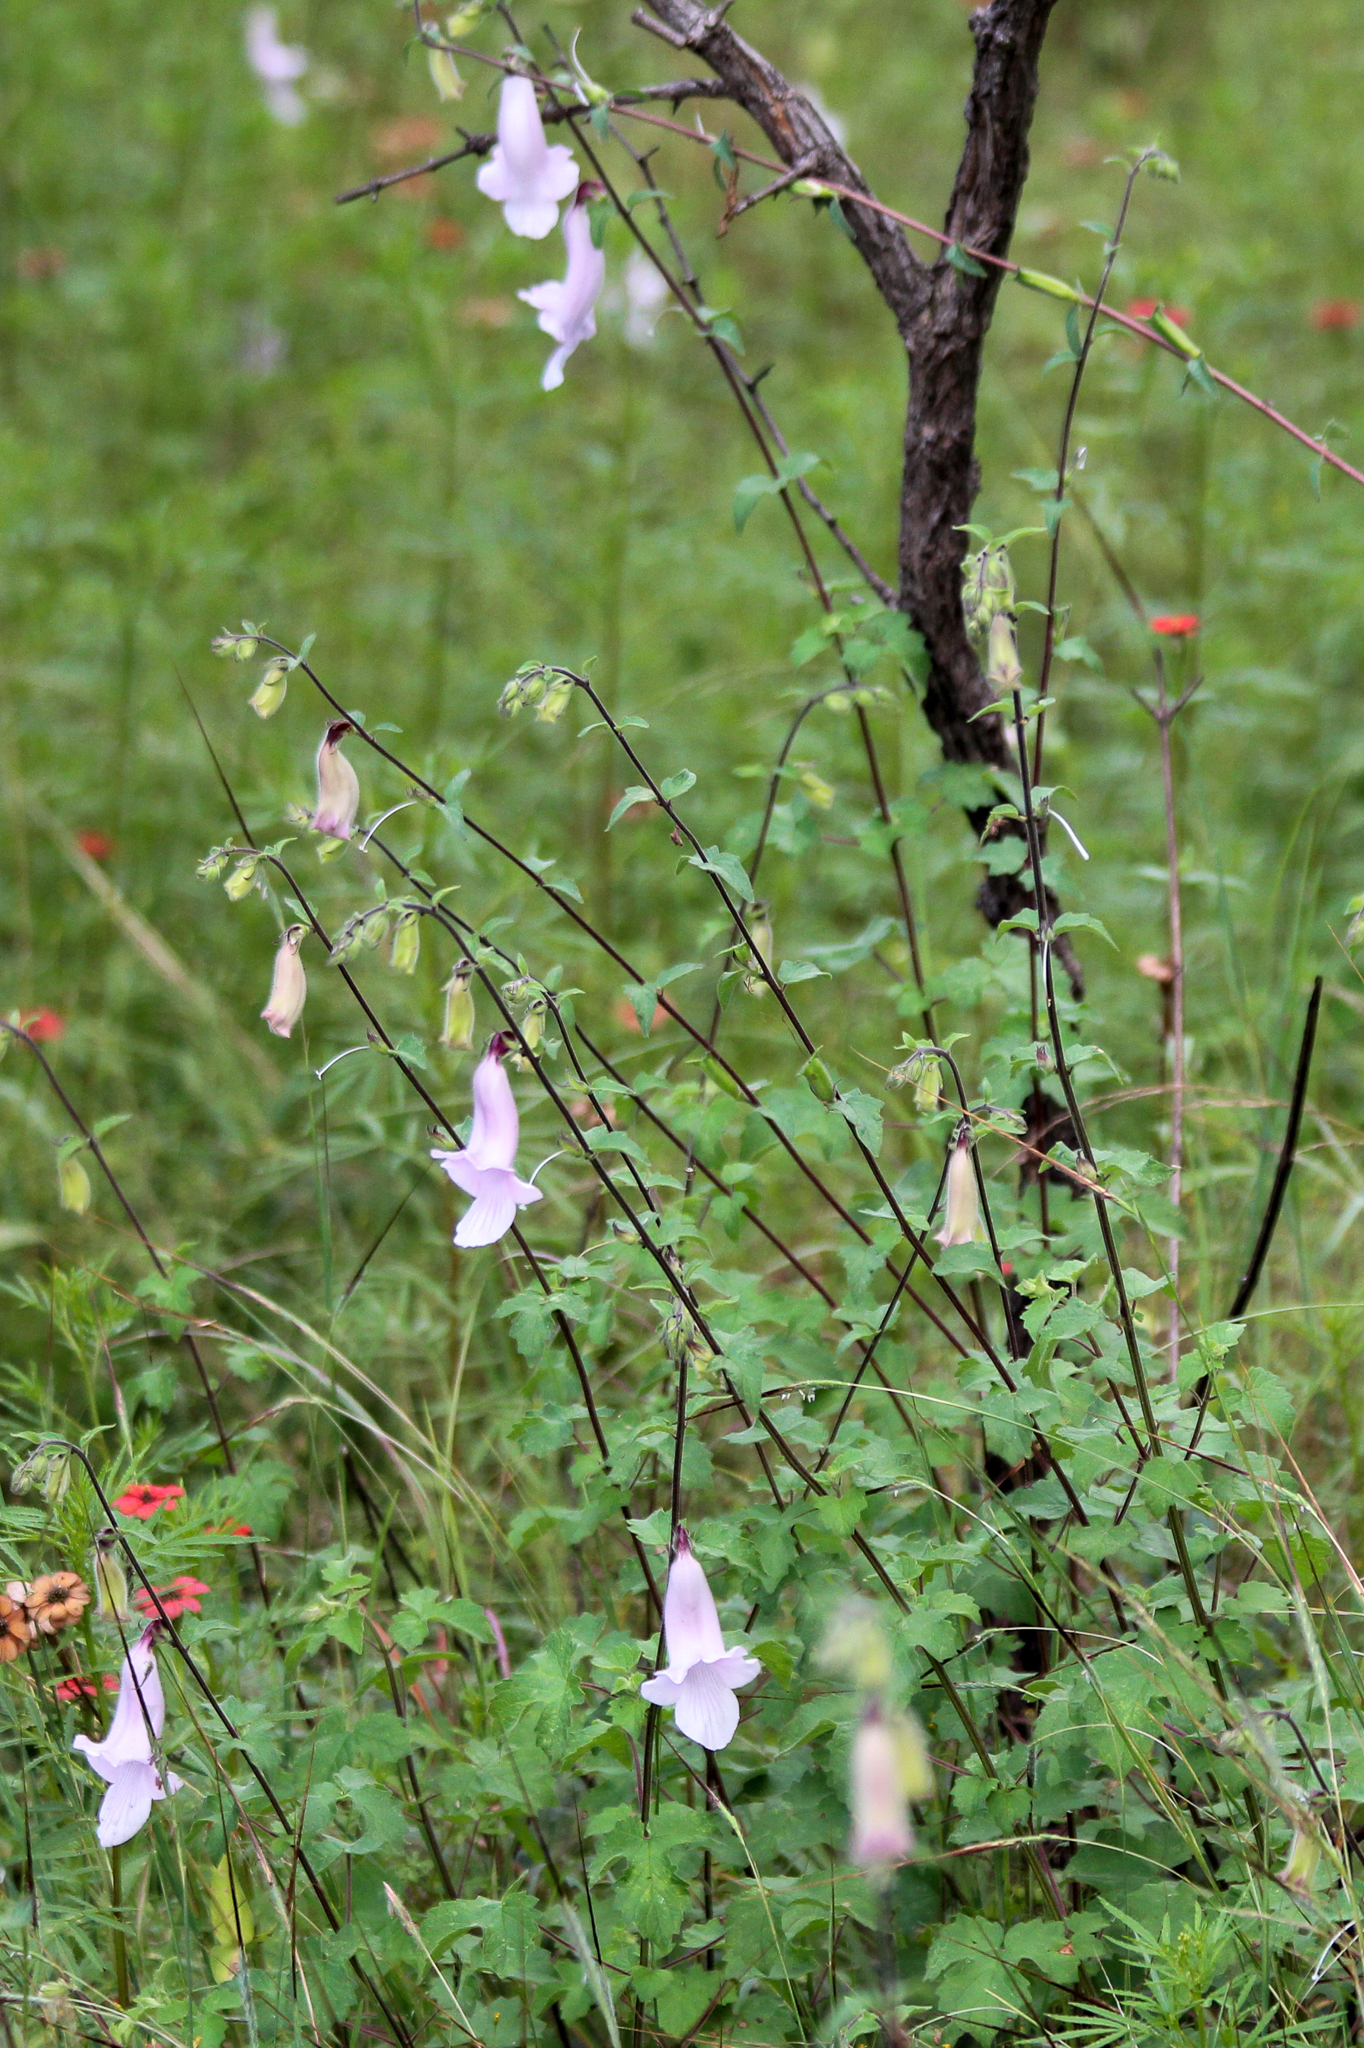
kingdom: Plantae
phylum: Tracheophyta
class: Magnoliopsida
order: Lamiales
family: Pedaliaceae
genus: Sesamum
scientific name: Sesamum trilobum
